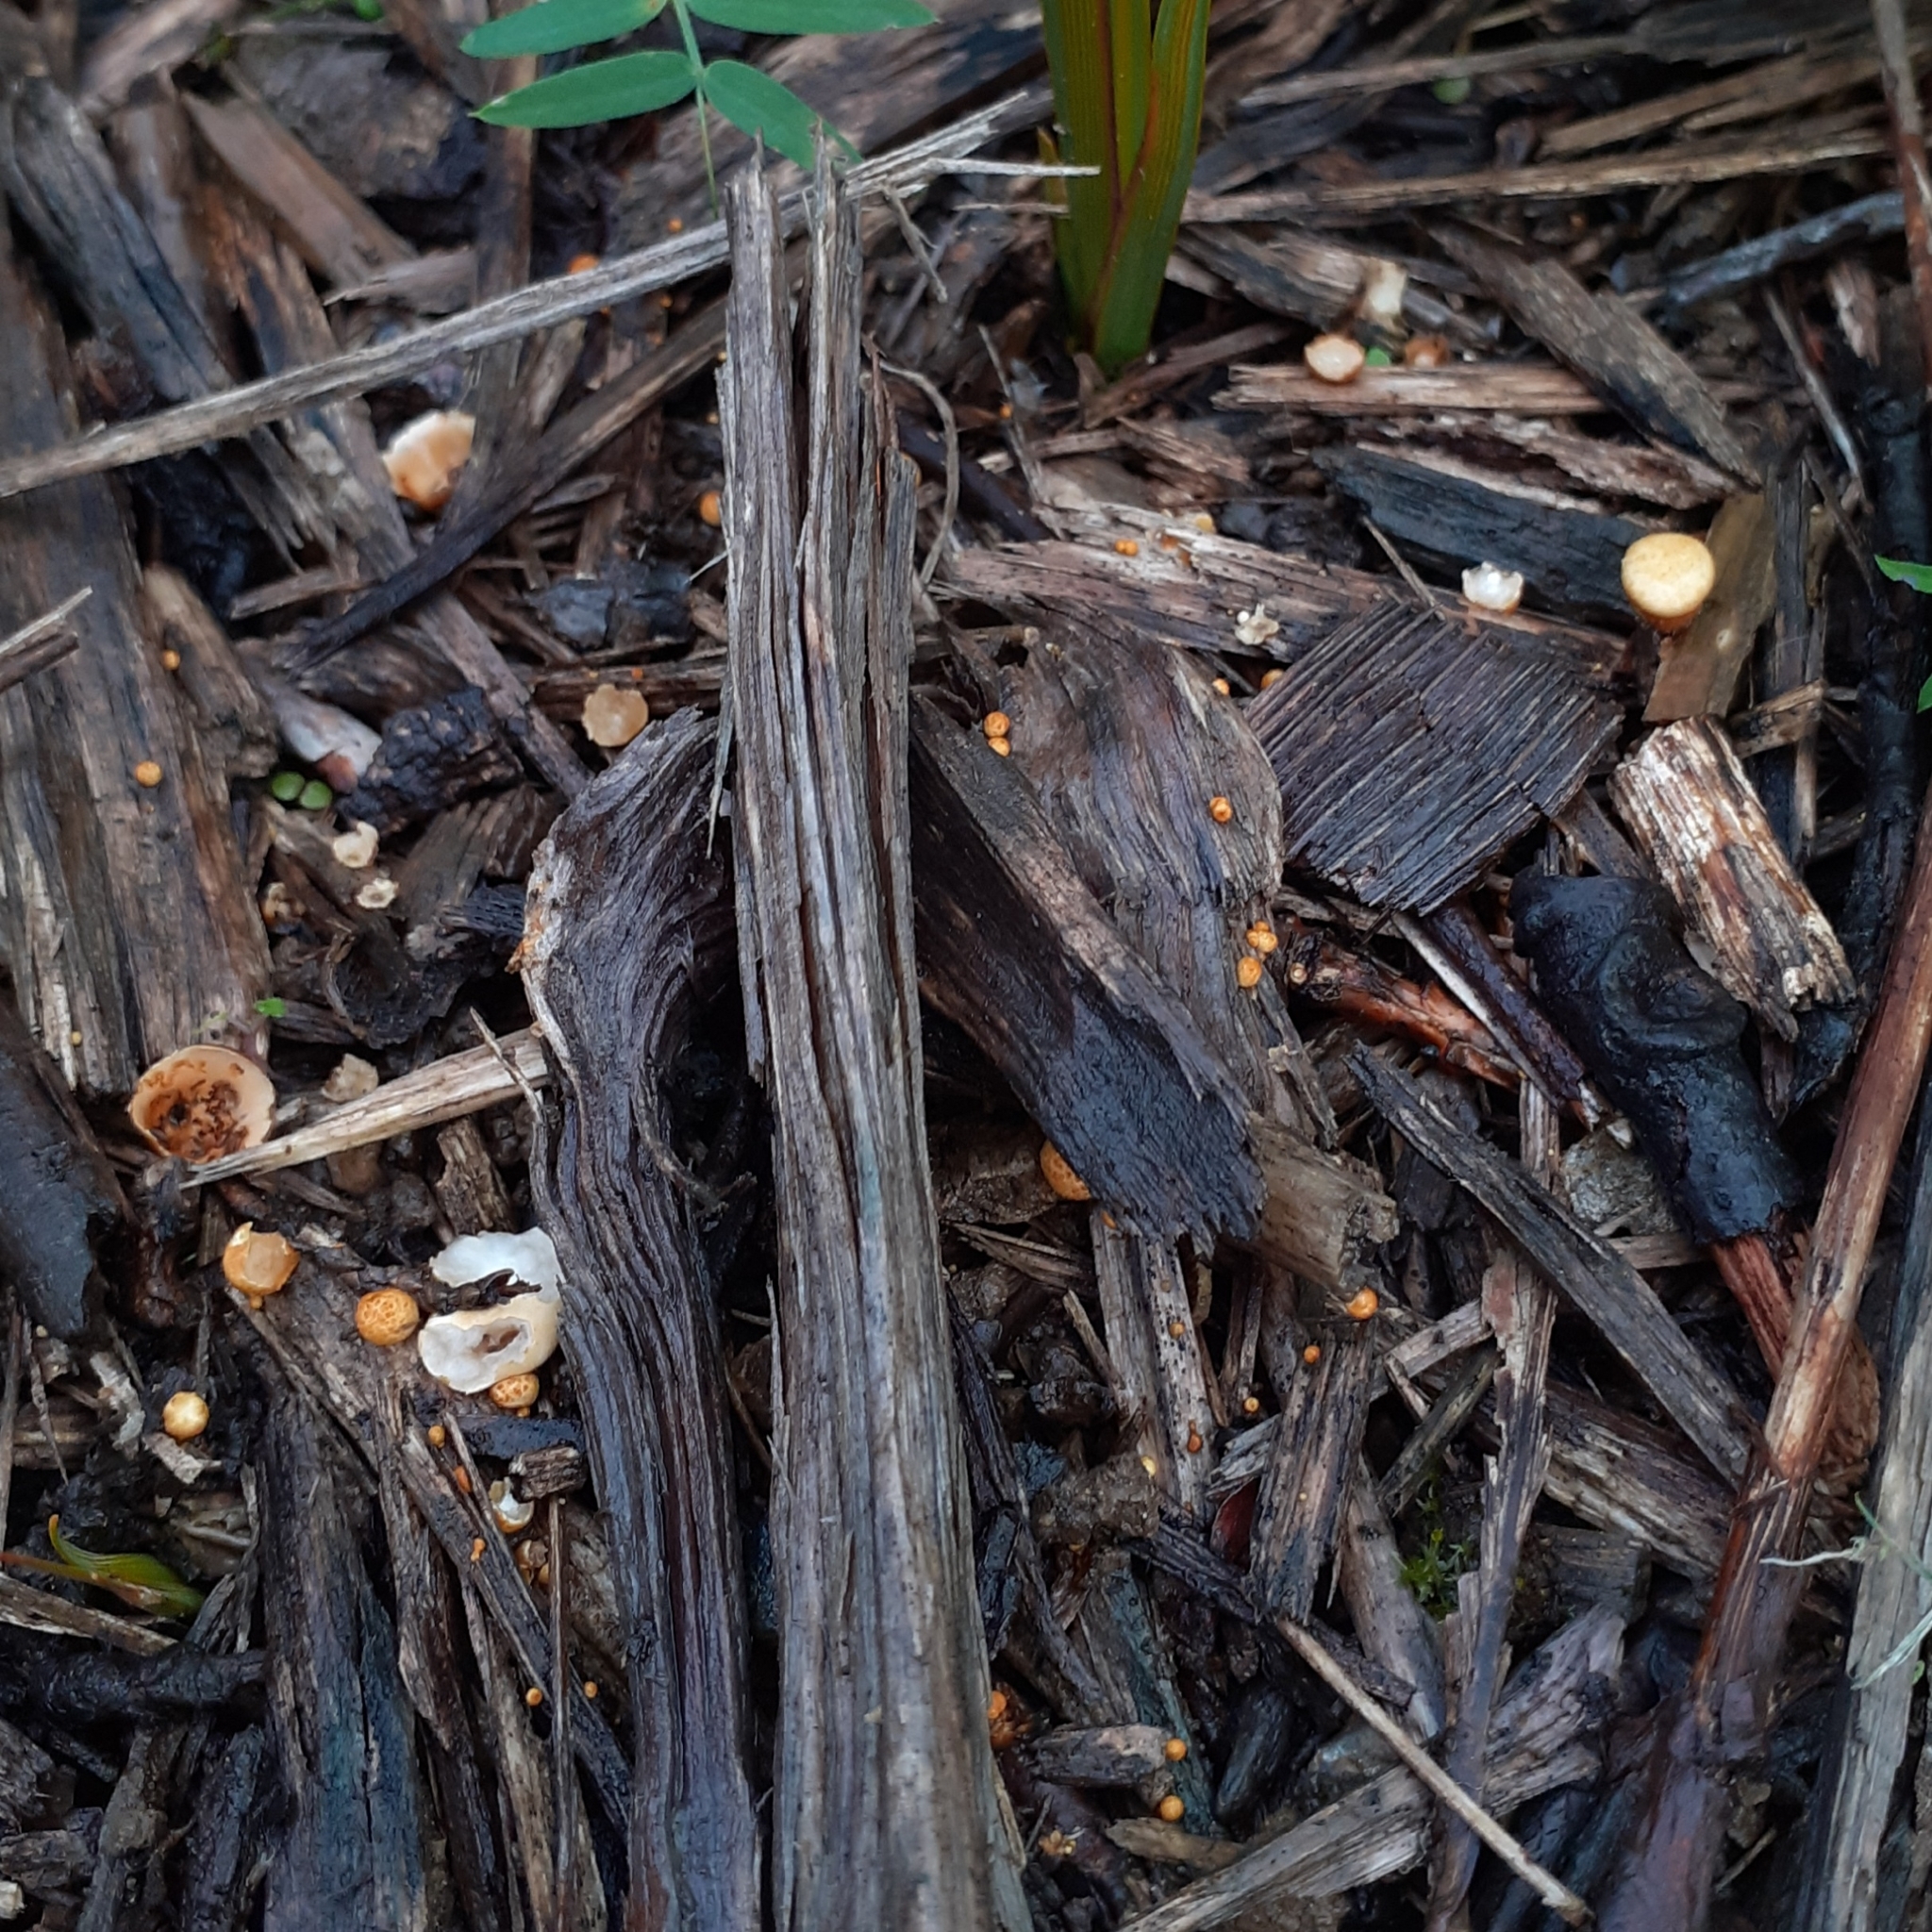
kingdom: Fungi
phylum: Basidiomycota
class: Agaricomycetes
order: Agaricales
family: Nidulariaceae
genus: Crucibulum
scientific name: Crucibulum laeve
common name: Common bird's nest
